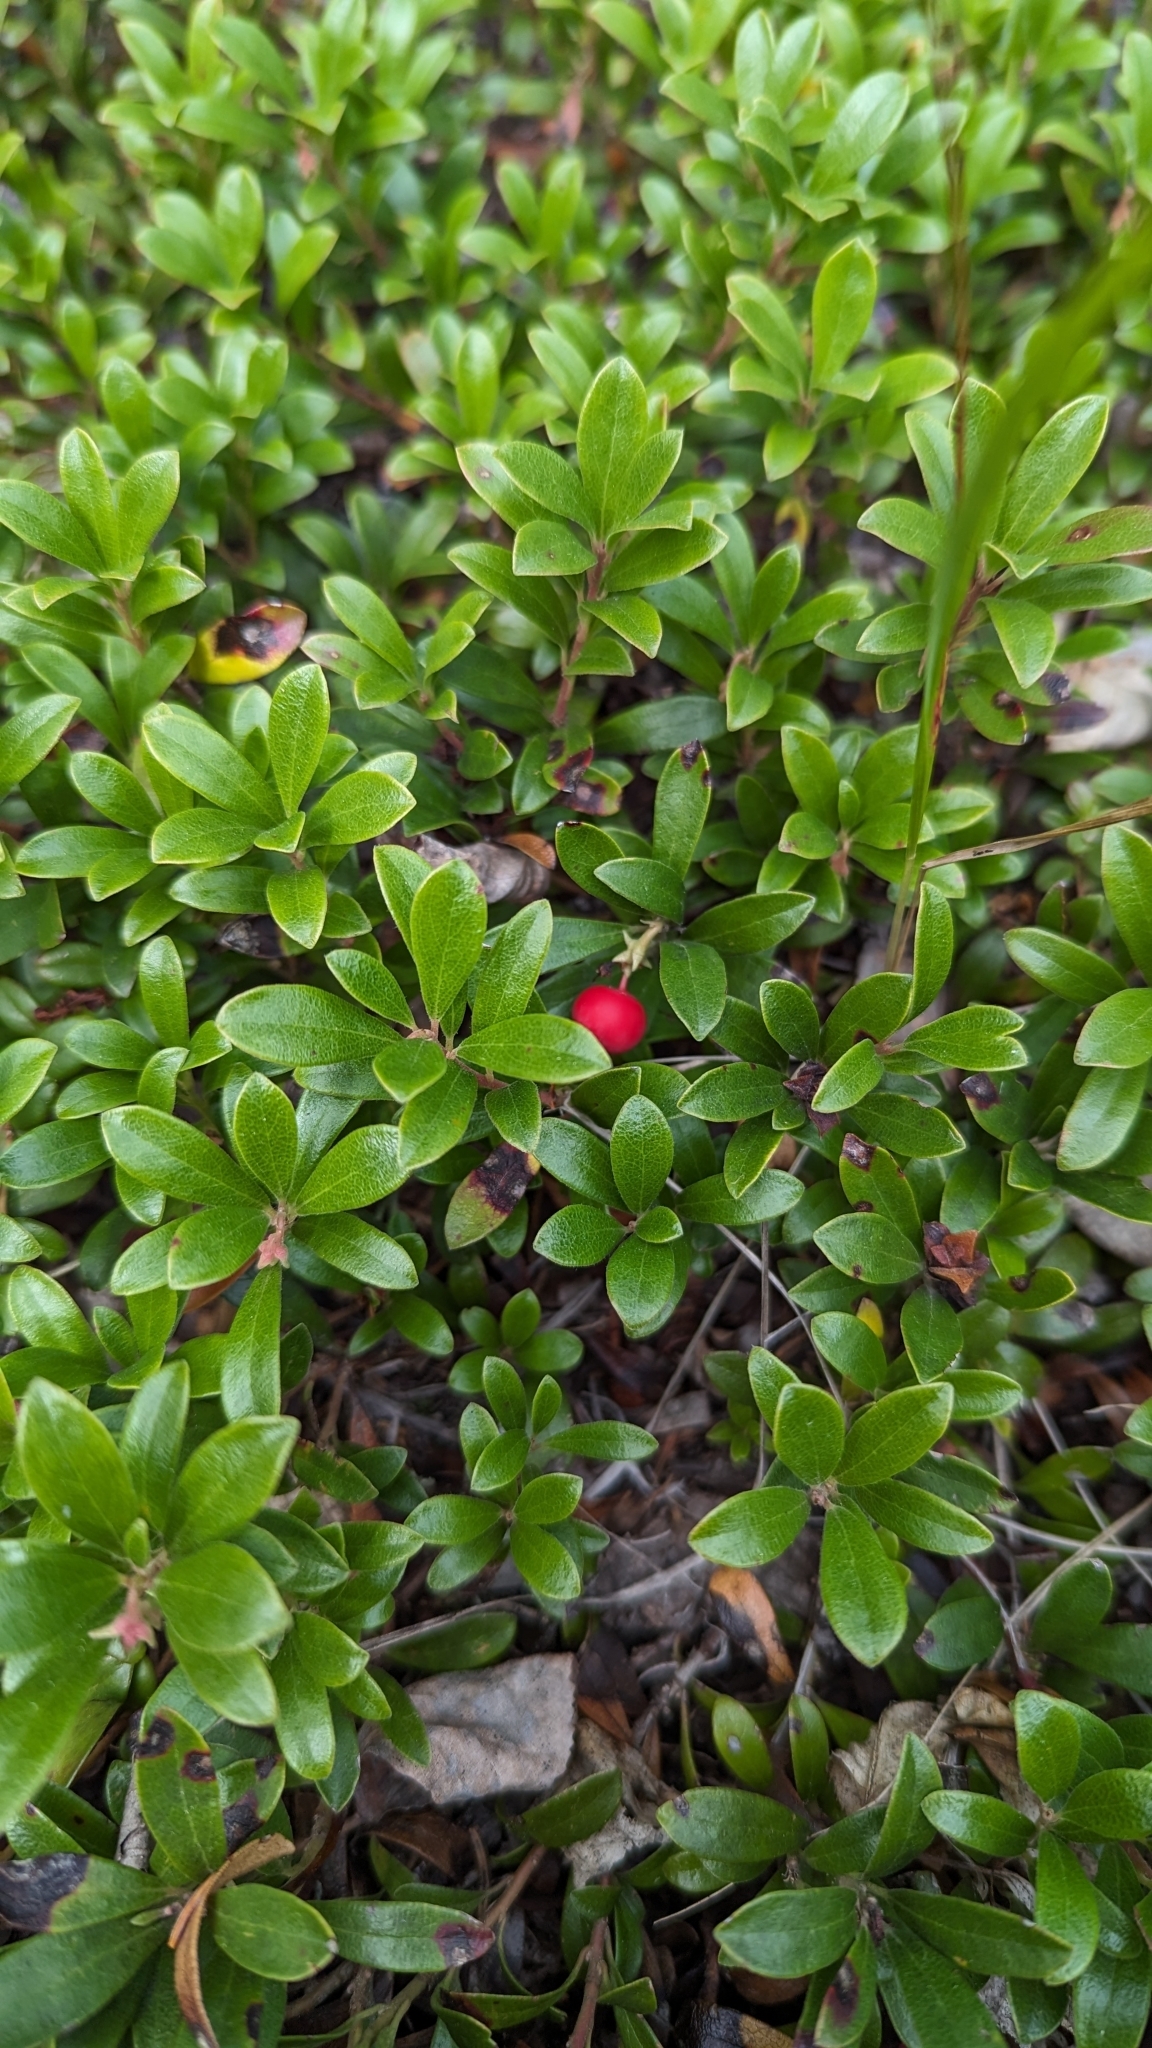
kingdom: Plantae
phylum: Tracheophyta
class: Magnoliopsida
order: Ericales
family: Ericaceae
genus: Arctostaphylos
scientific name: Arctostaphylos uva-ursi
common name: Bearberry
